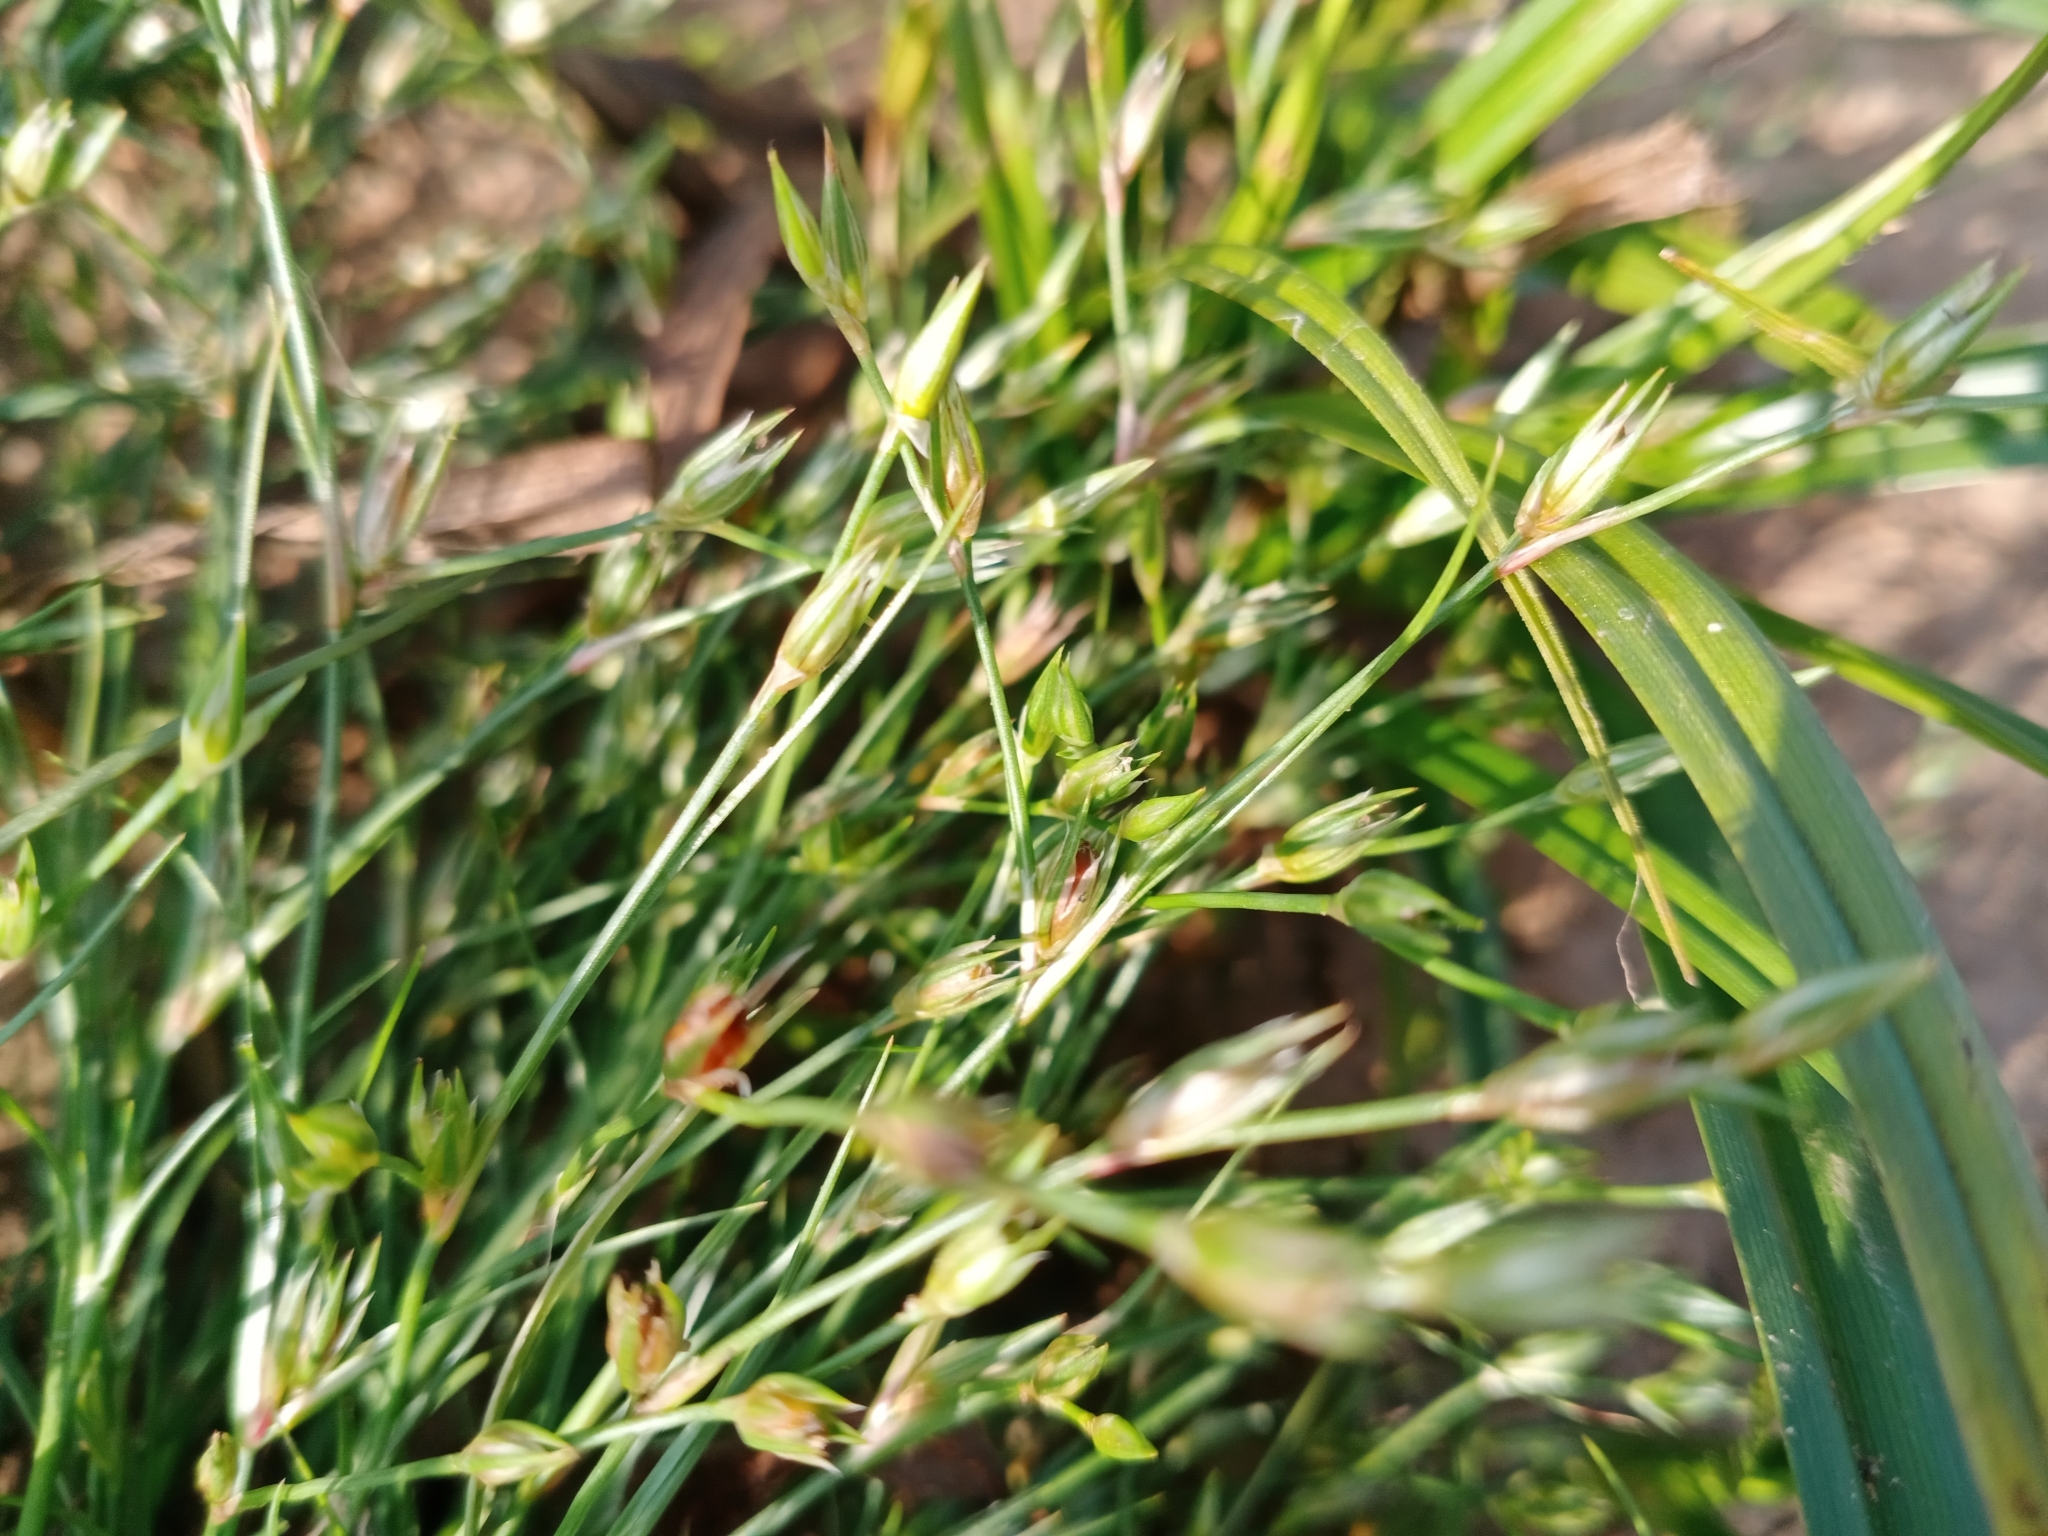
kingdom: Plantae
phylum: Tracheophyta
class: Liliopsida
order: Poales
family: Juncaceae
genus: Juncus
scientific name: Juncus bufonius
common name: Toad rush
